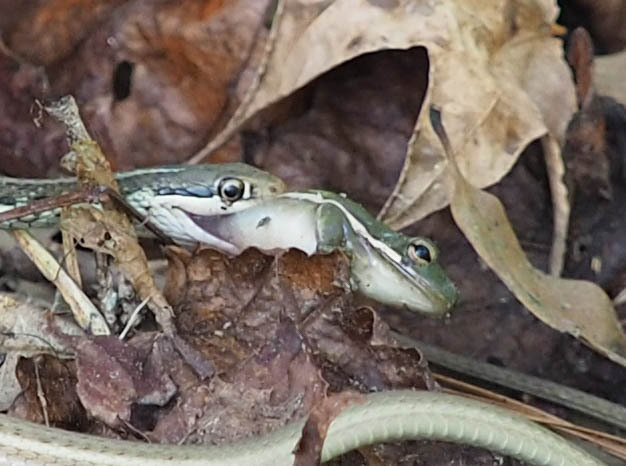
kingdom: Animalia
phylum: Chordata
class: Amphibia
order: Anura
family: Hylidae
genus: Dryophytes
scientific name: Dryophytes cinereus
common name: Green treefrog
